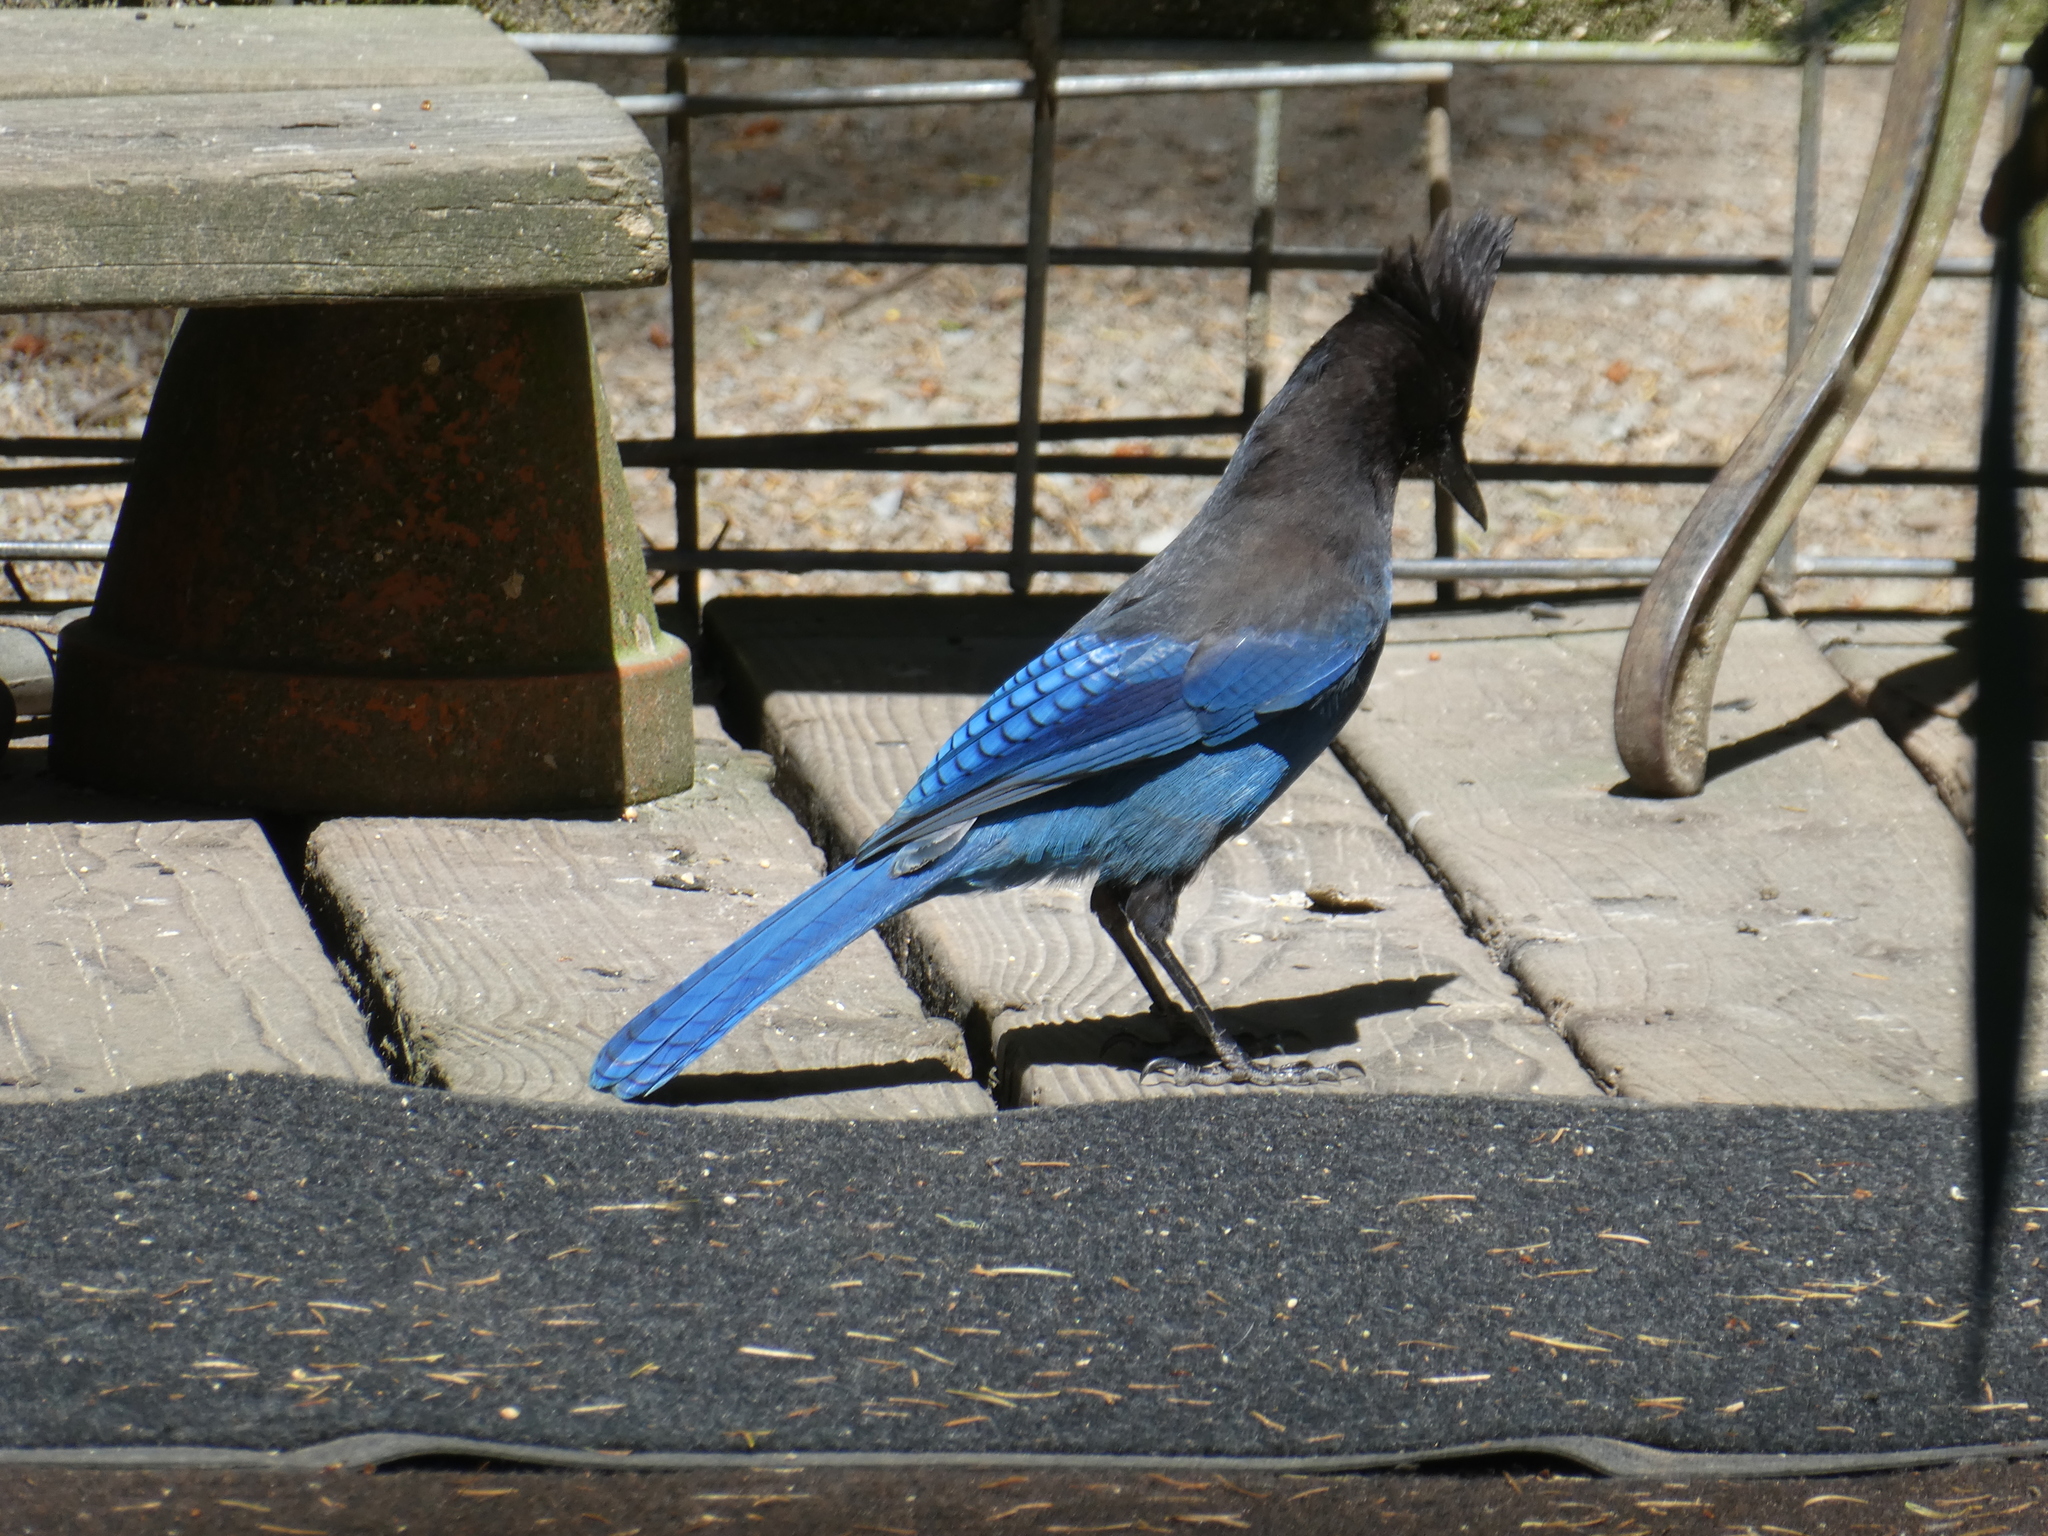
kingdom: Animalia
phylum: Chordata
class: Aves
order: Passeriformes
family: Corvidae
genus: Cyanocitta
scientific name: Cyanocitta stelleri
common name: Steller's jay
